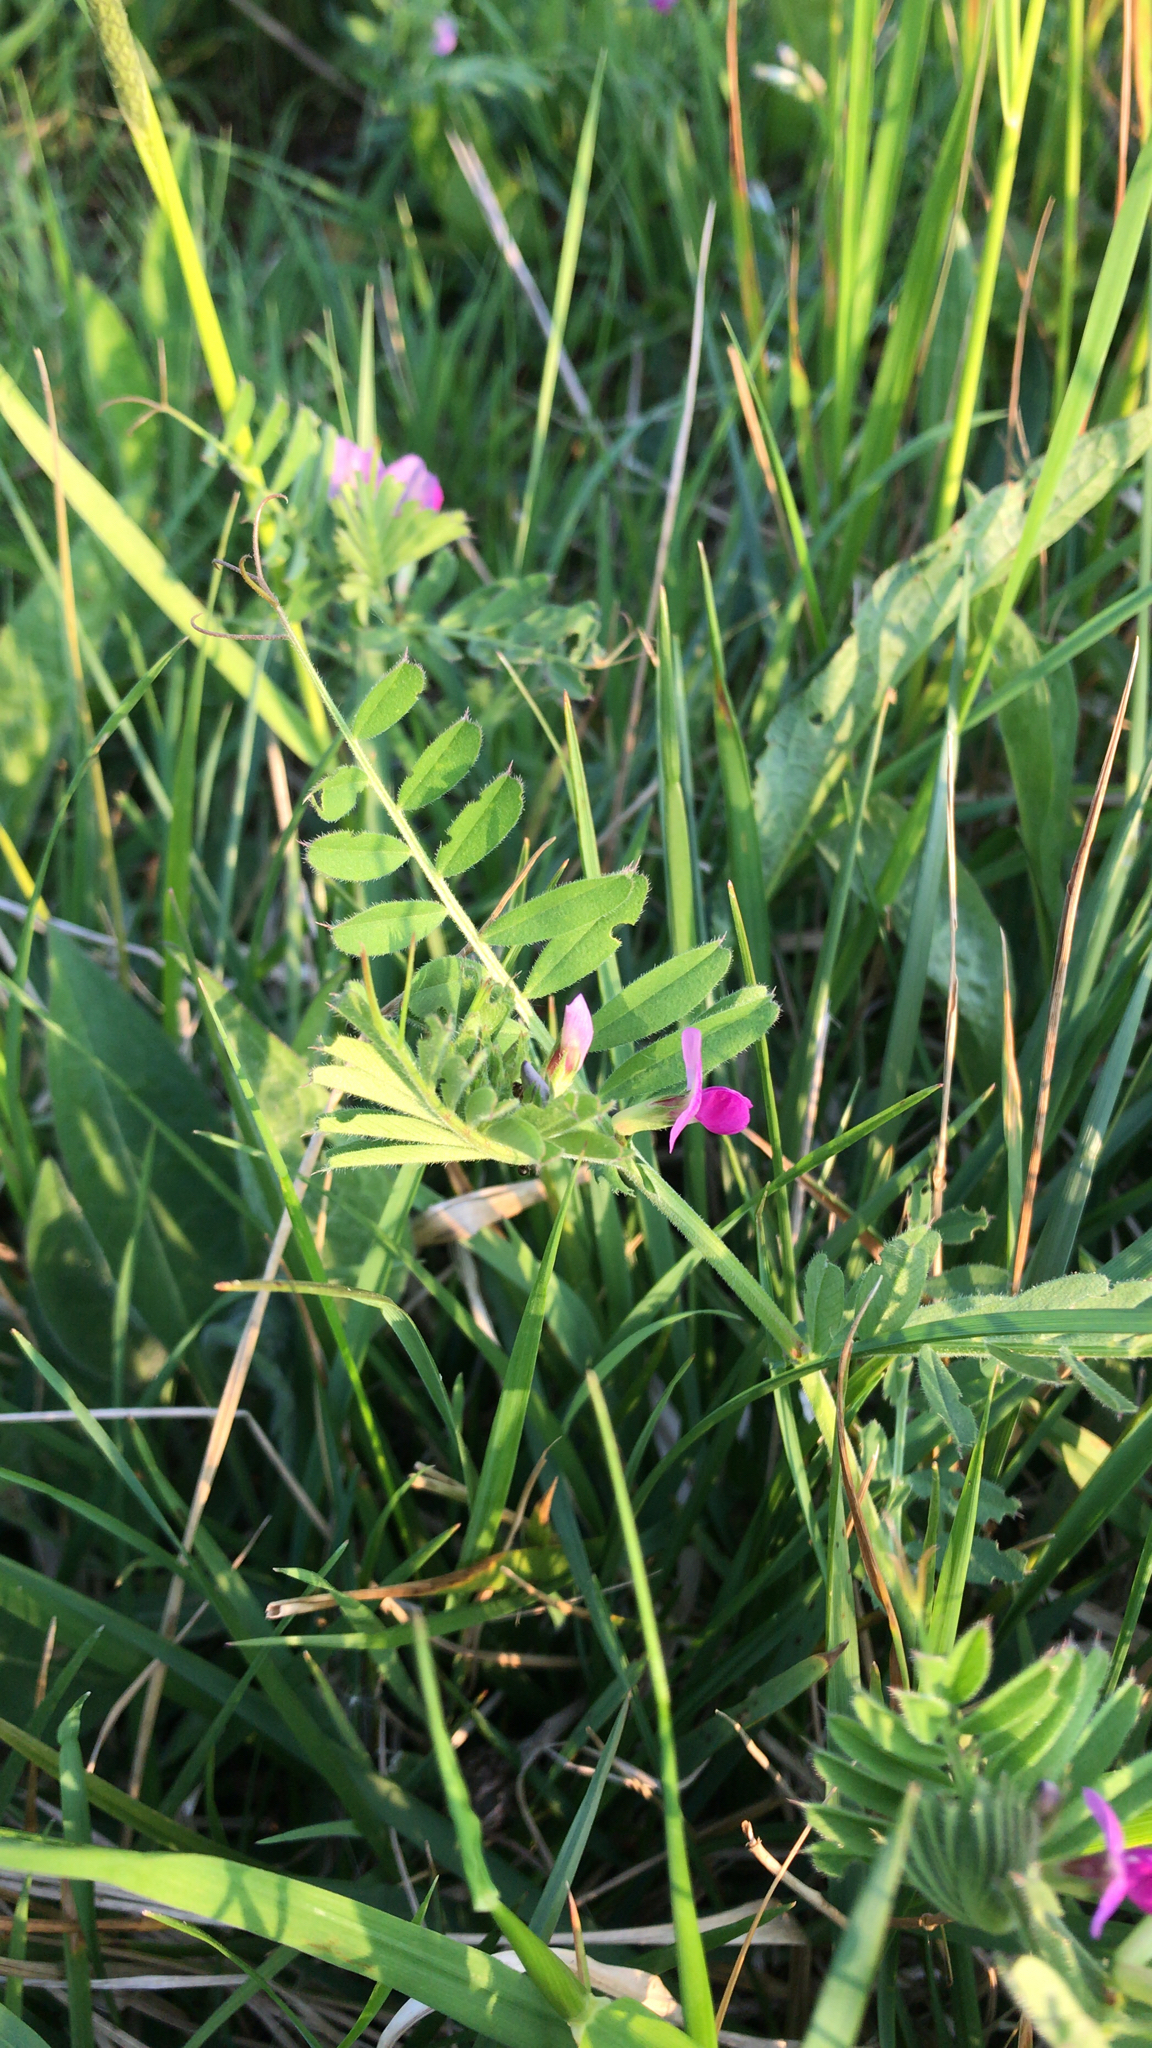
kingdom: Plantae
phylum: Tracheophyta
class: Magnoliopsida
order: Fabales
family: Fabaceae
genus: Vicia
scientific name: Vicia sativa
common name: Garden vetch
